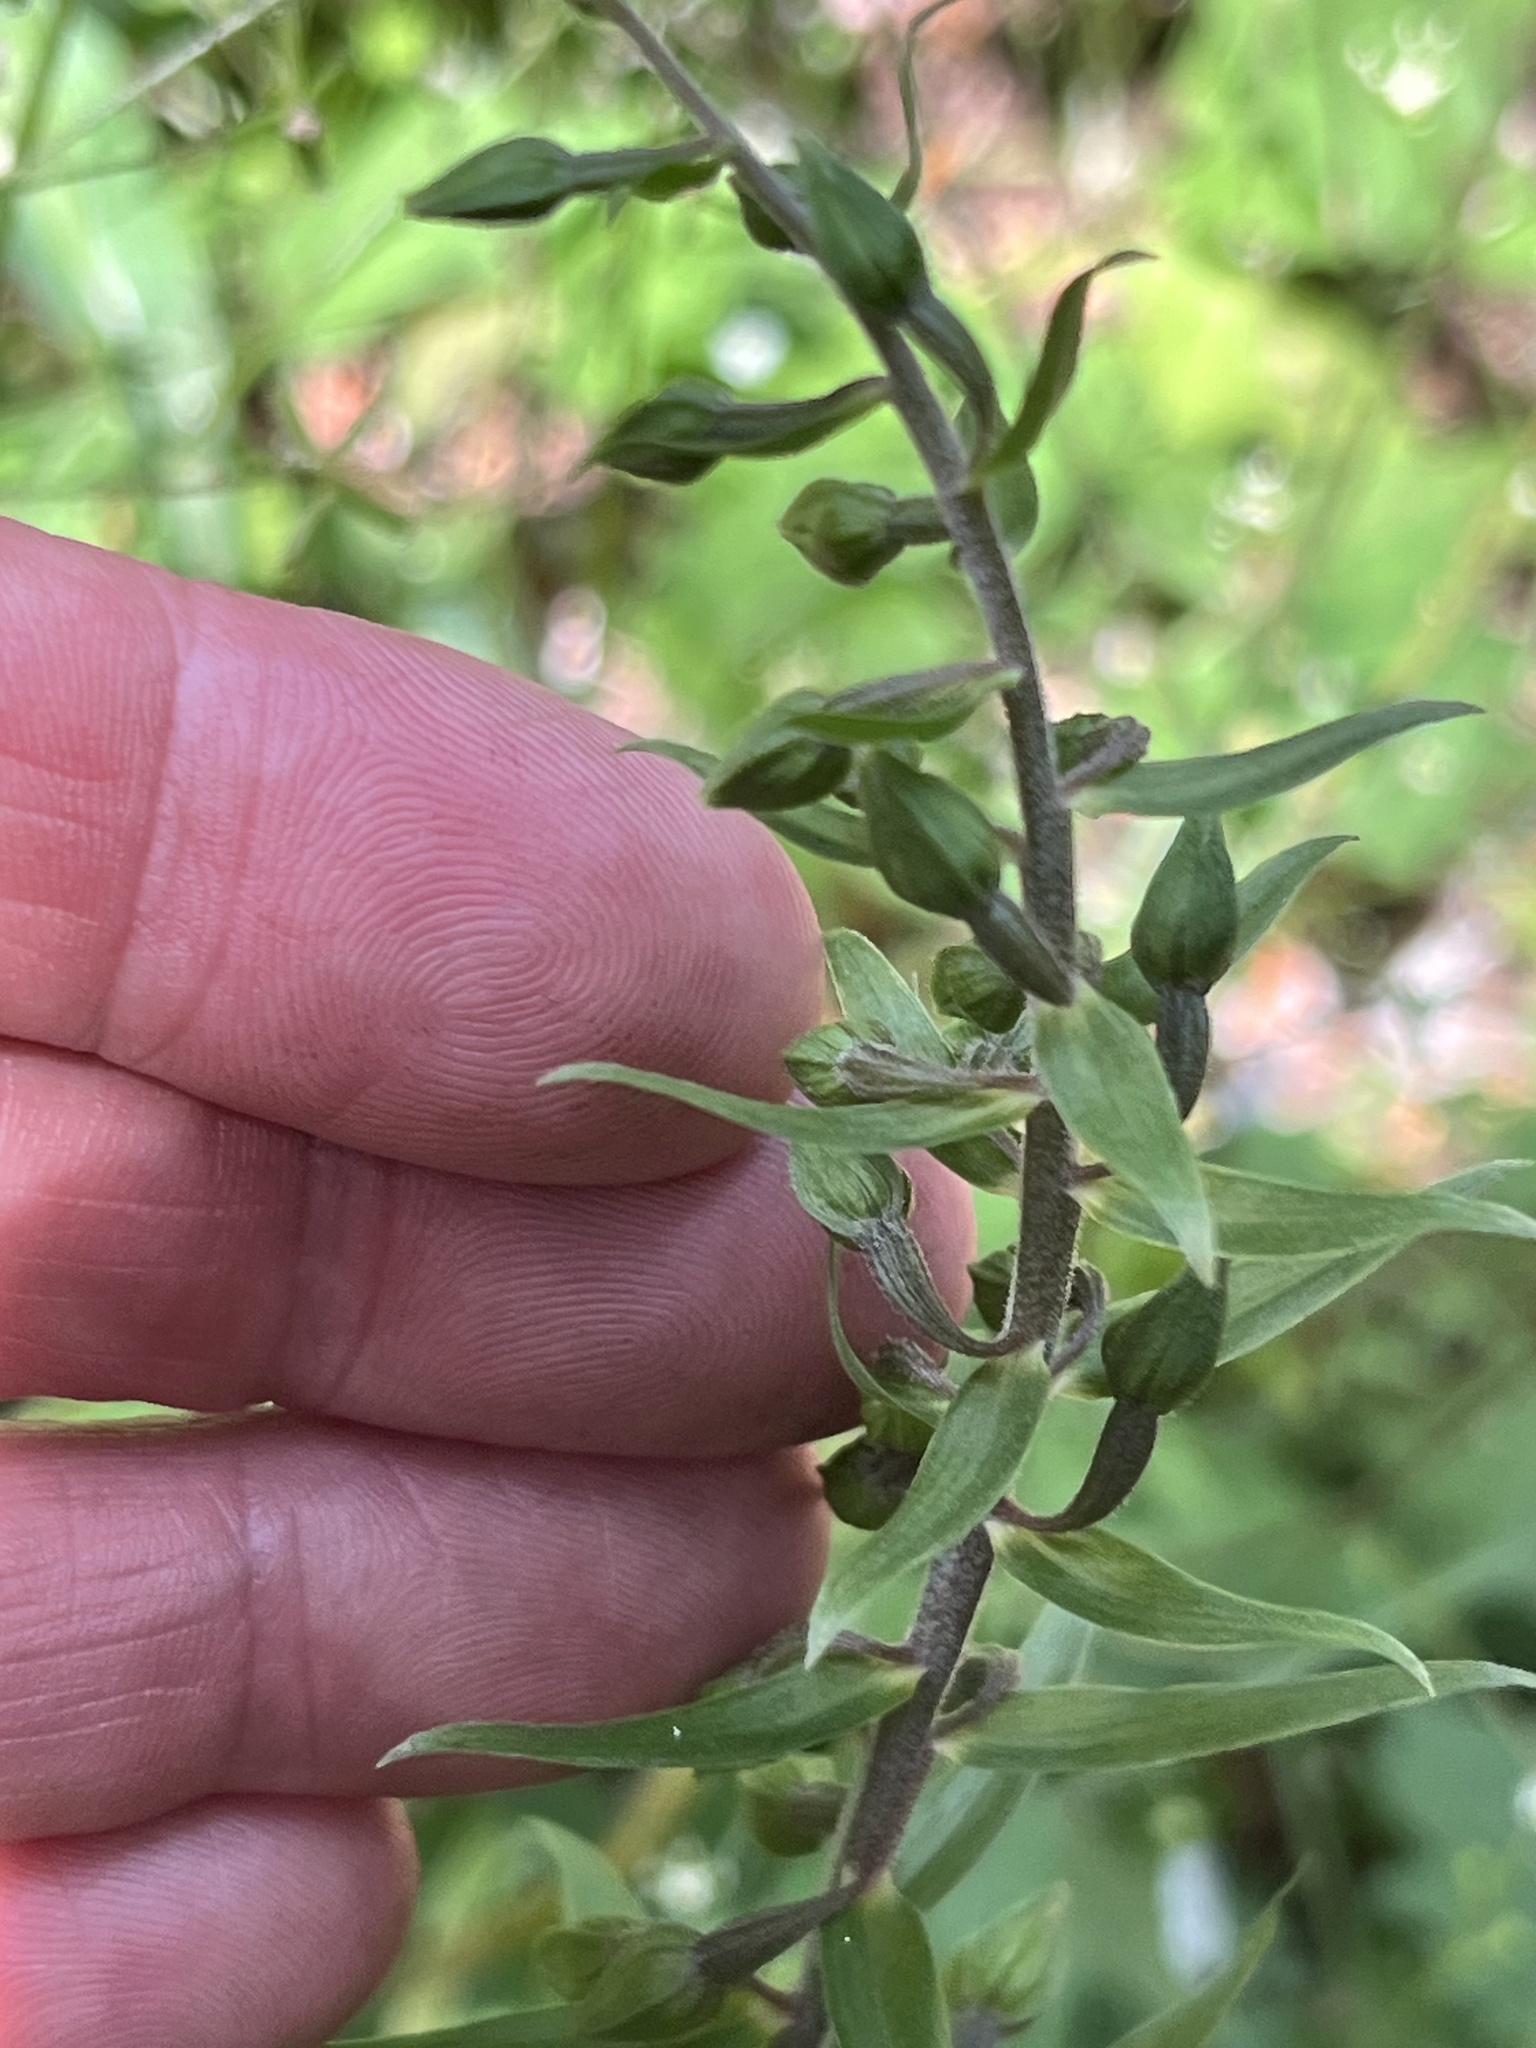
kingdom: Plantae
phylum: Tracheophyta
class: Liliopsida
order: Asparagales
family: Orchidaceae
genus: Epipactis
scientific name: Epipactis helleborine
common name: Broad-leaved helleborine
